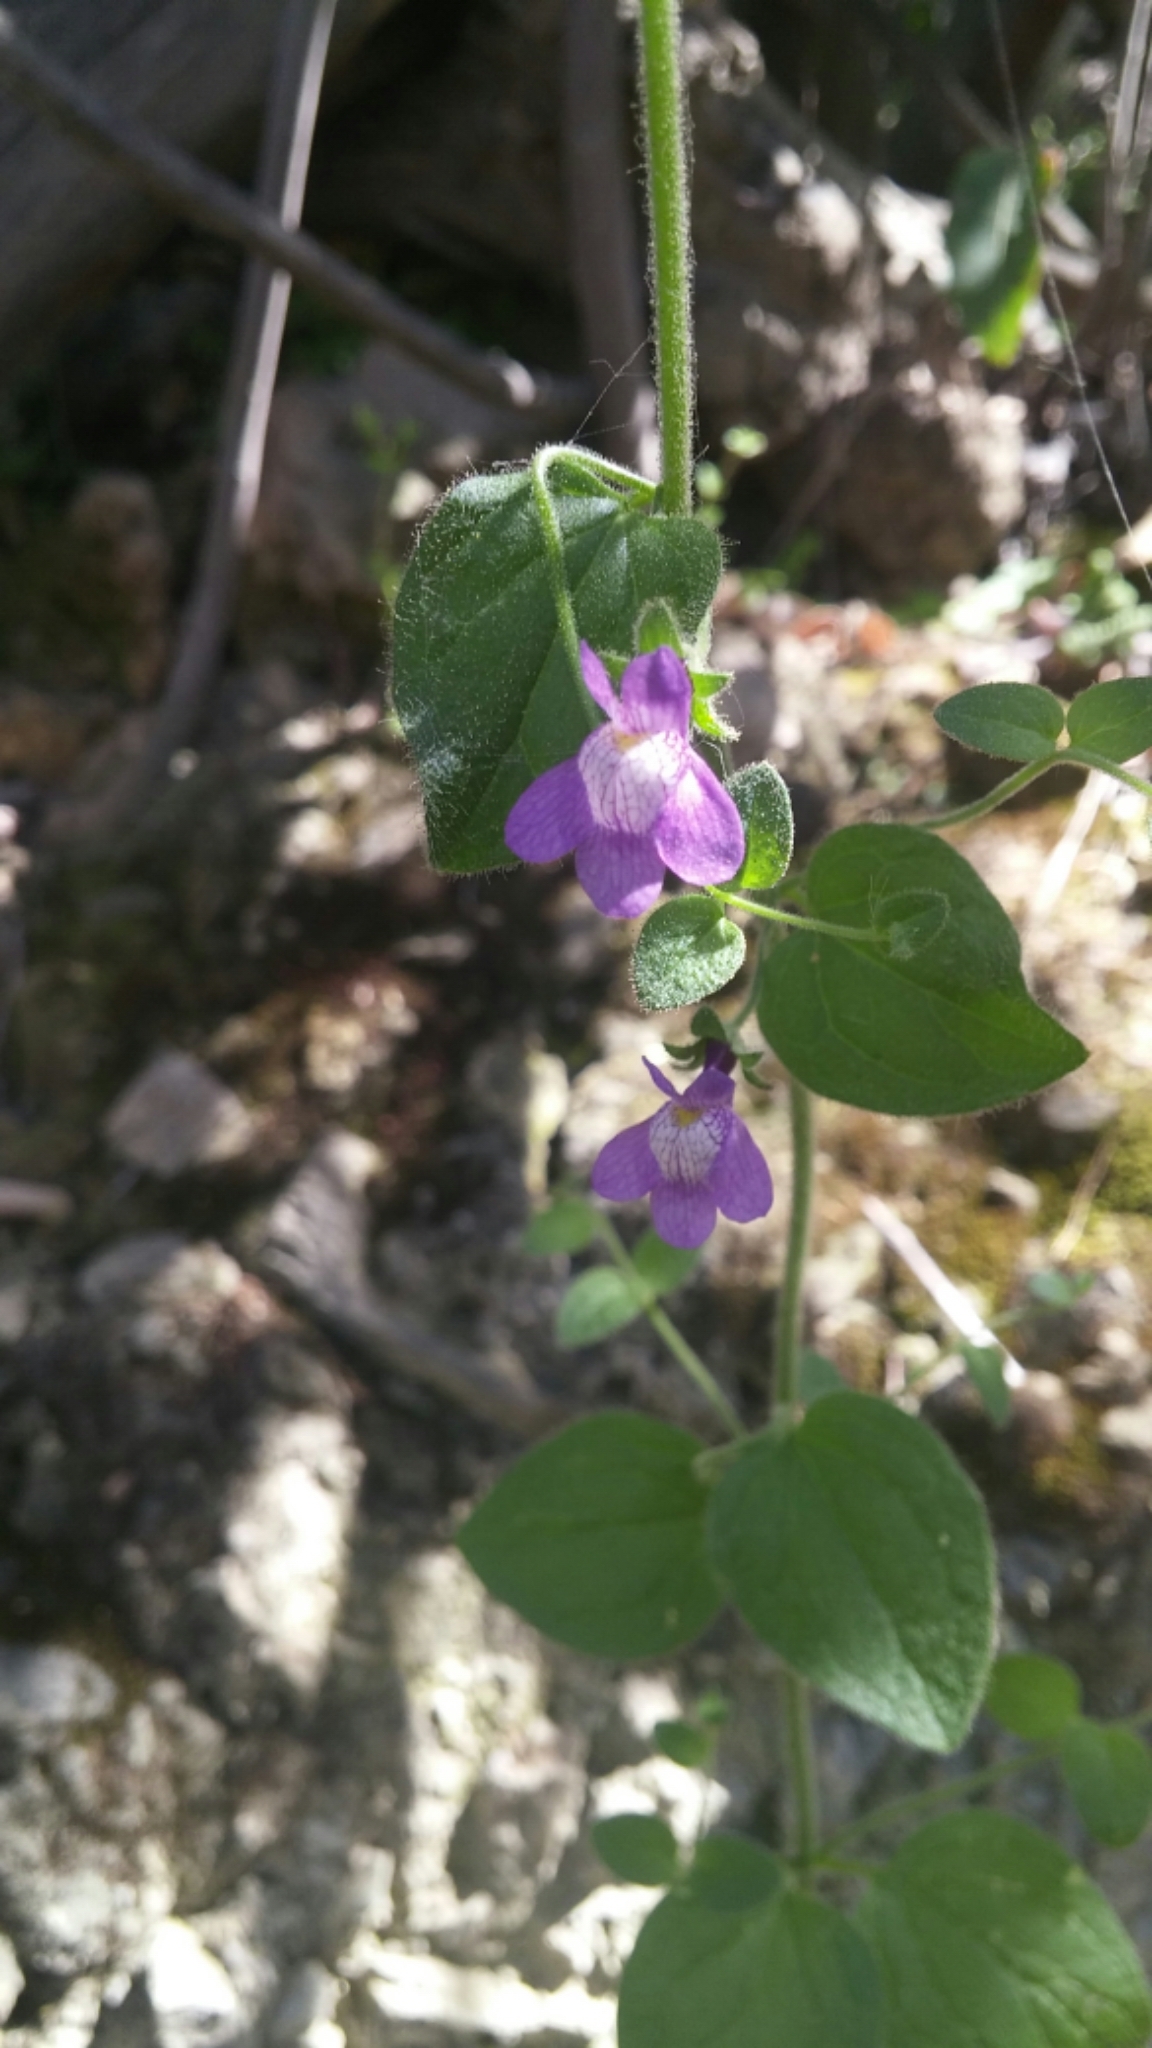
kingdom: Plantae
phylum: Tracheophyta
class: Magnoliopsida
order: Lamiales
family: Plantaginaceae
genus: Sairocarpus
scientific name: Sairocarpus nuttallianus
